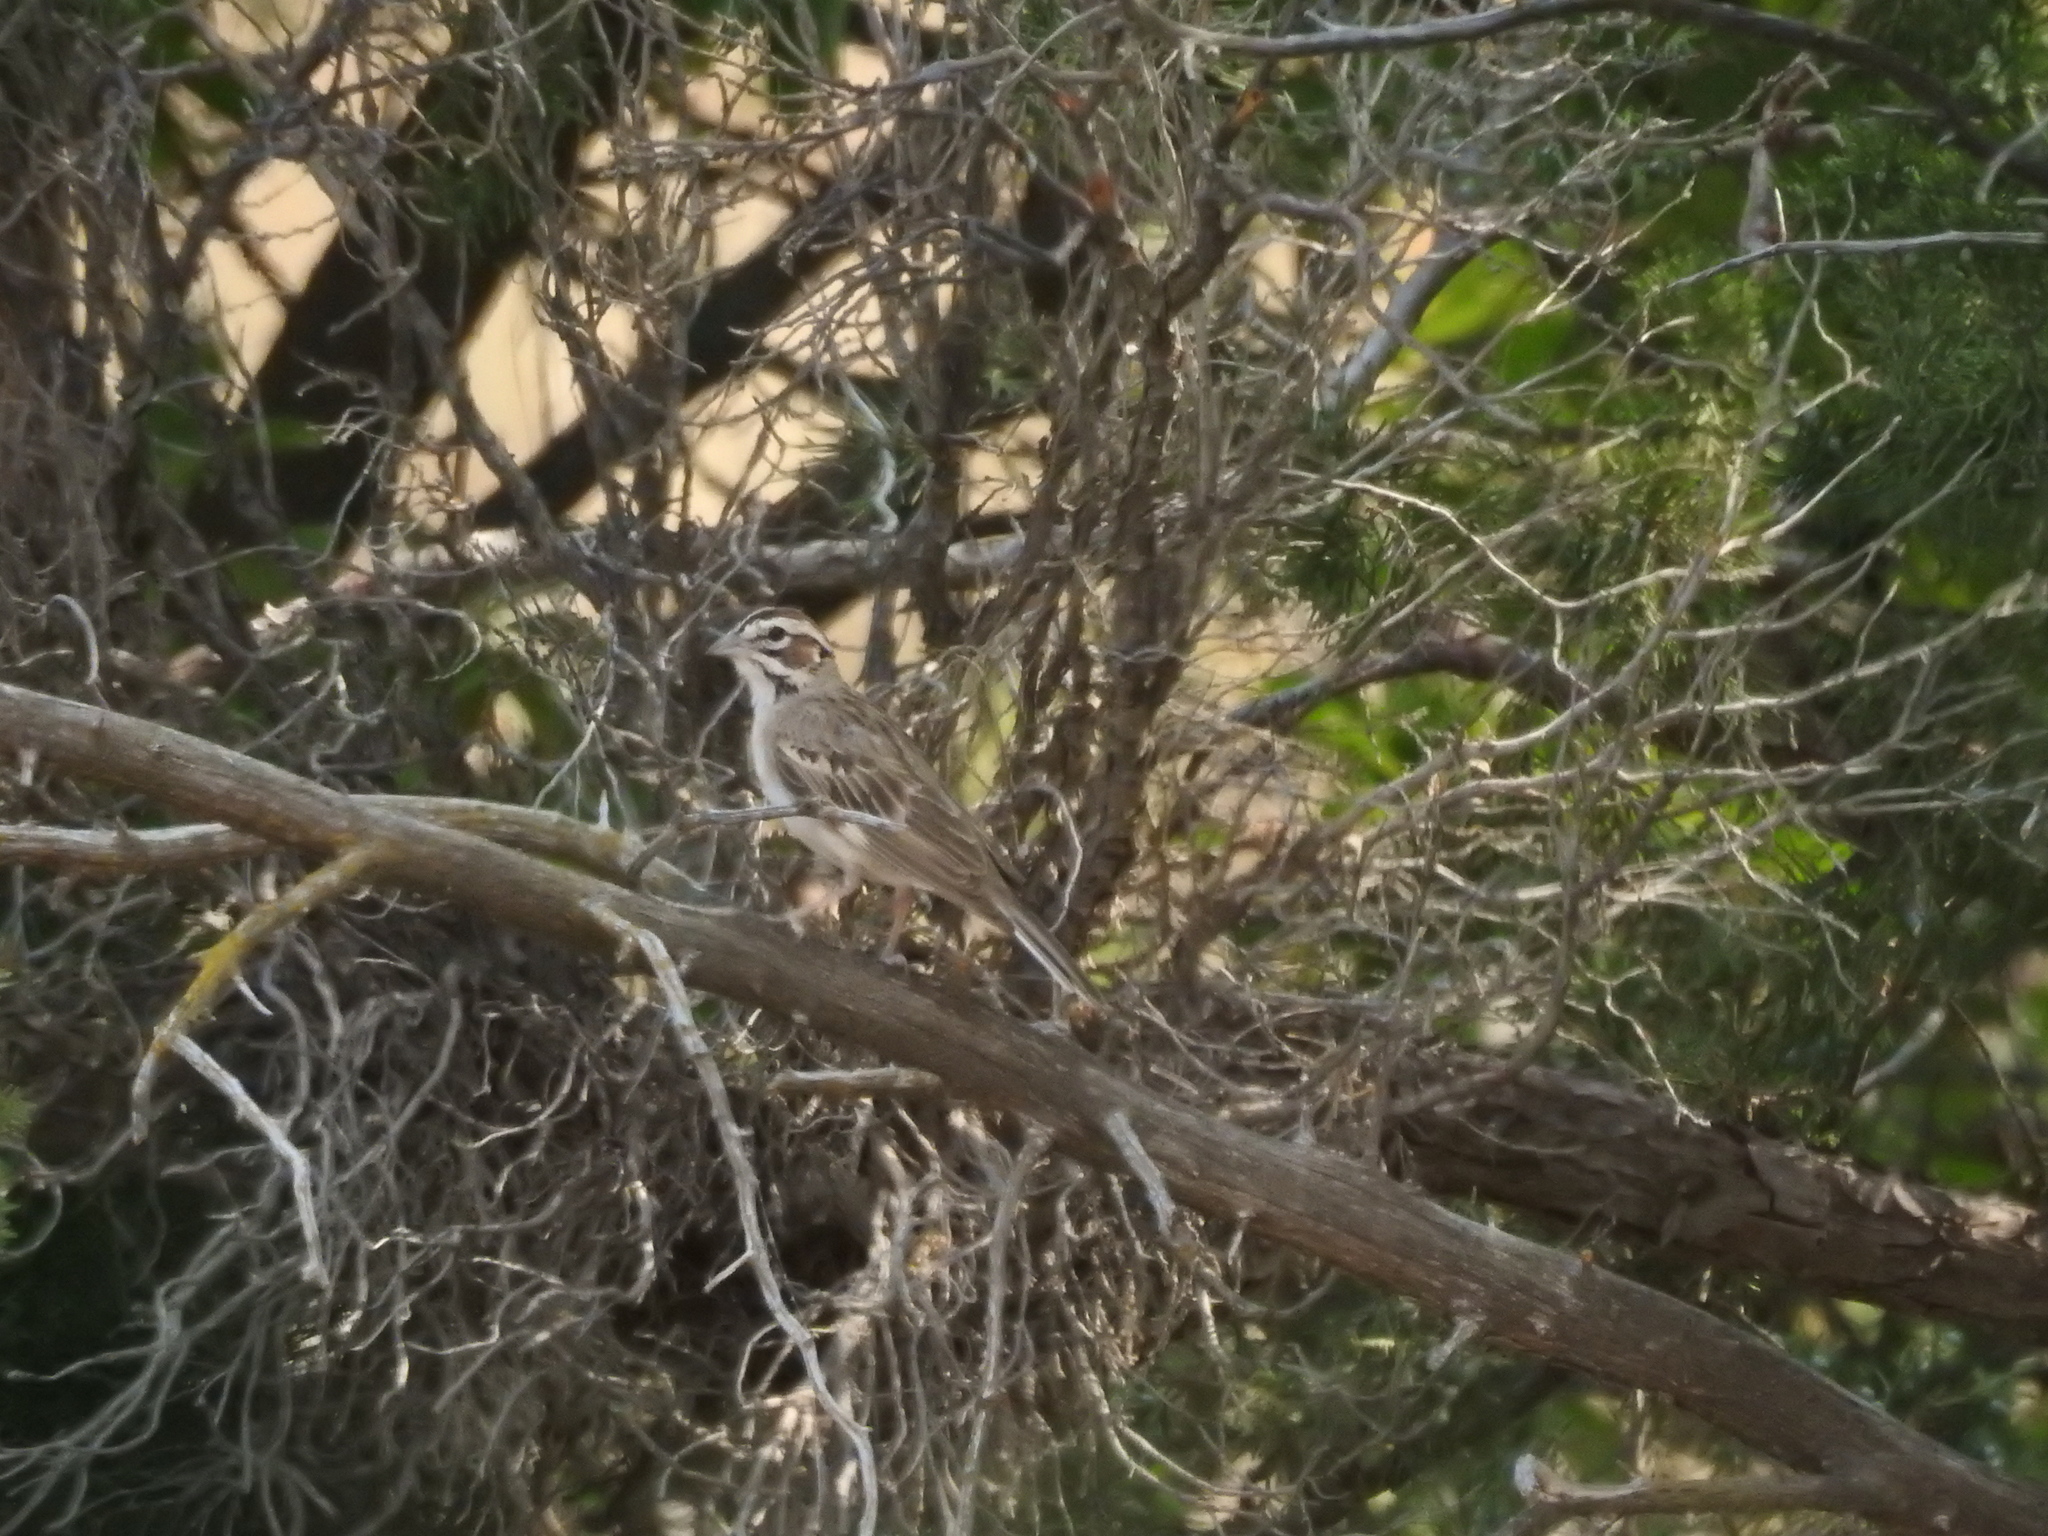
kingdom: Animalia
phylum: Chordata
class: Aves
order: Passeriformes
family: Passerellidae
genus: Chondestes
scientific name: Chondestes grammacus
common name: Lark sparrow
